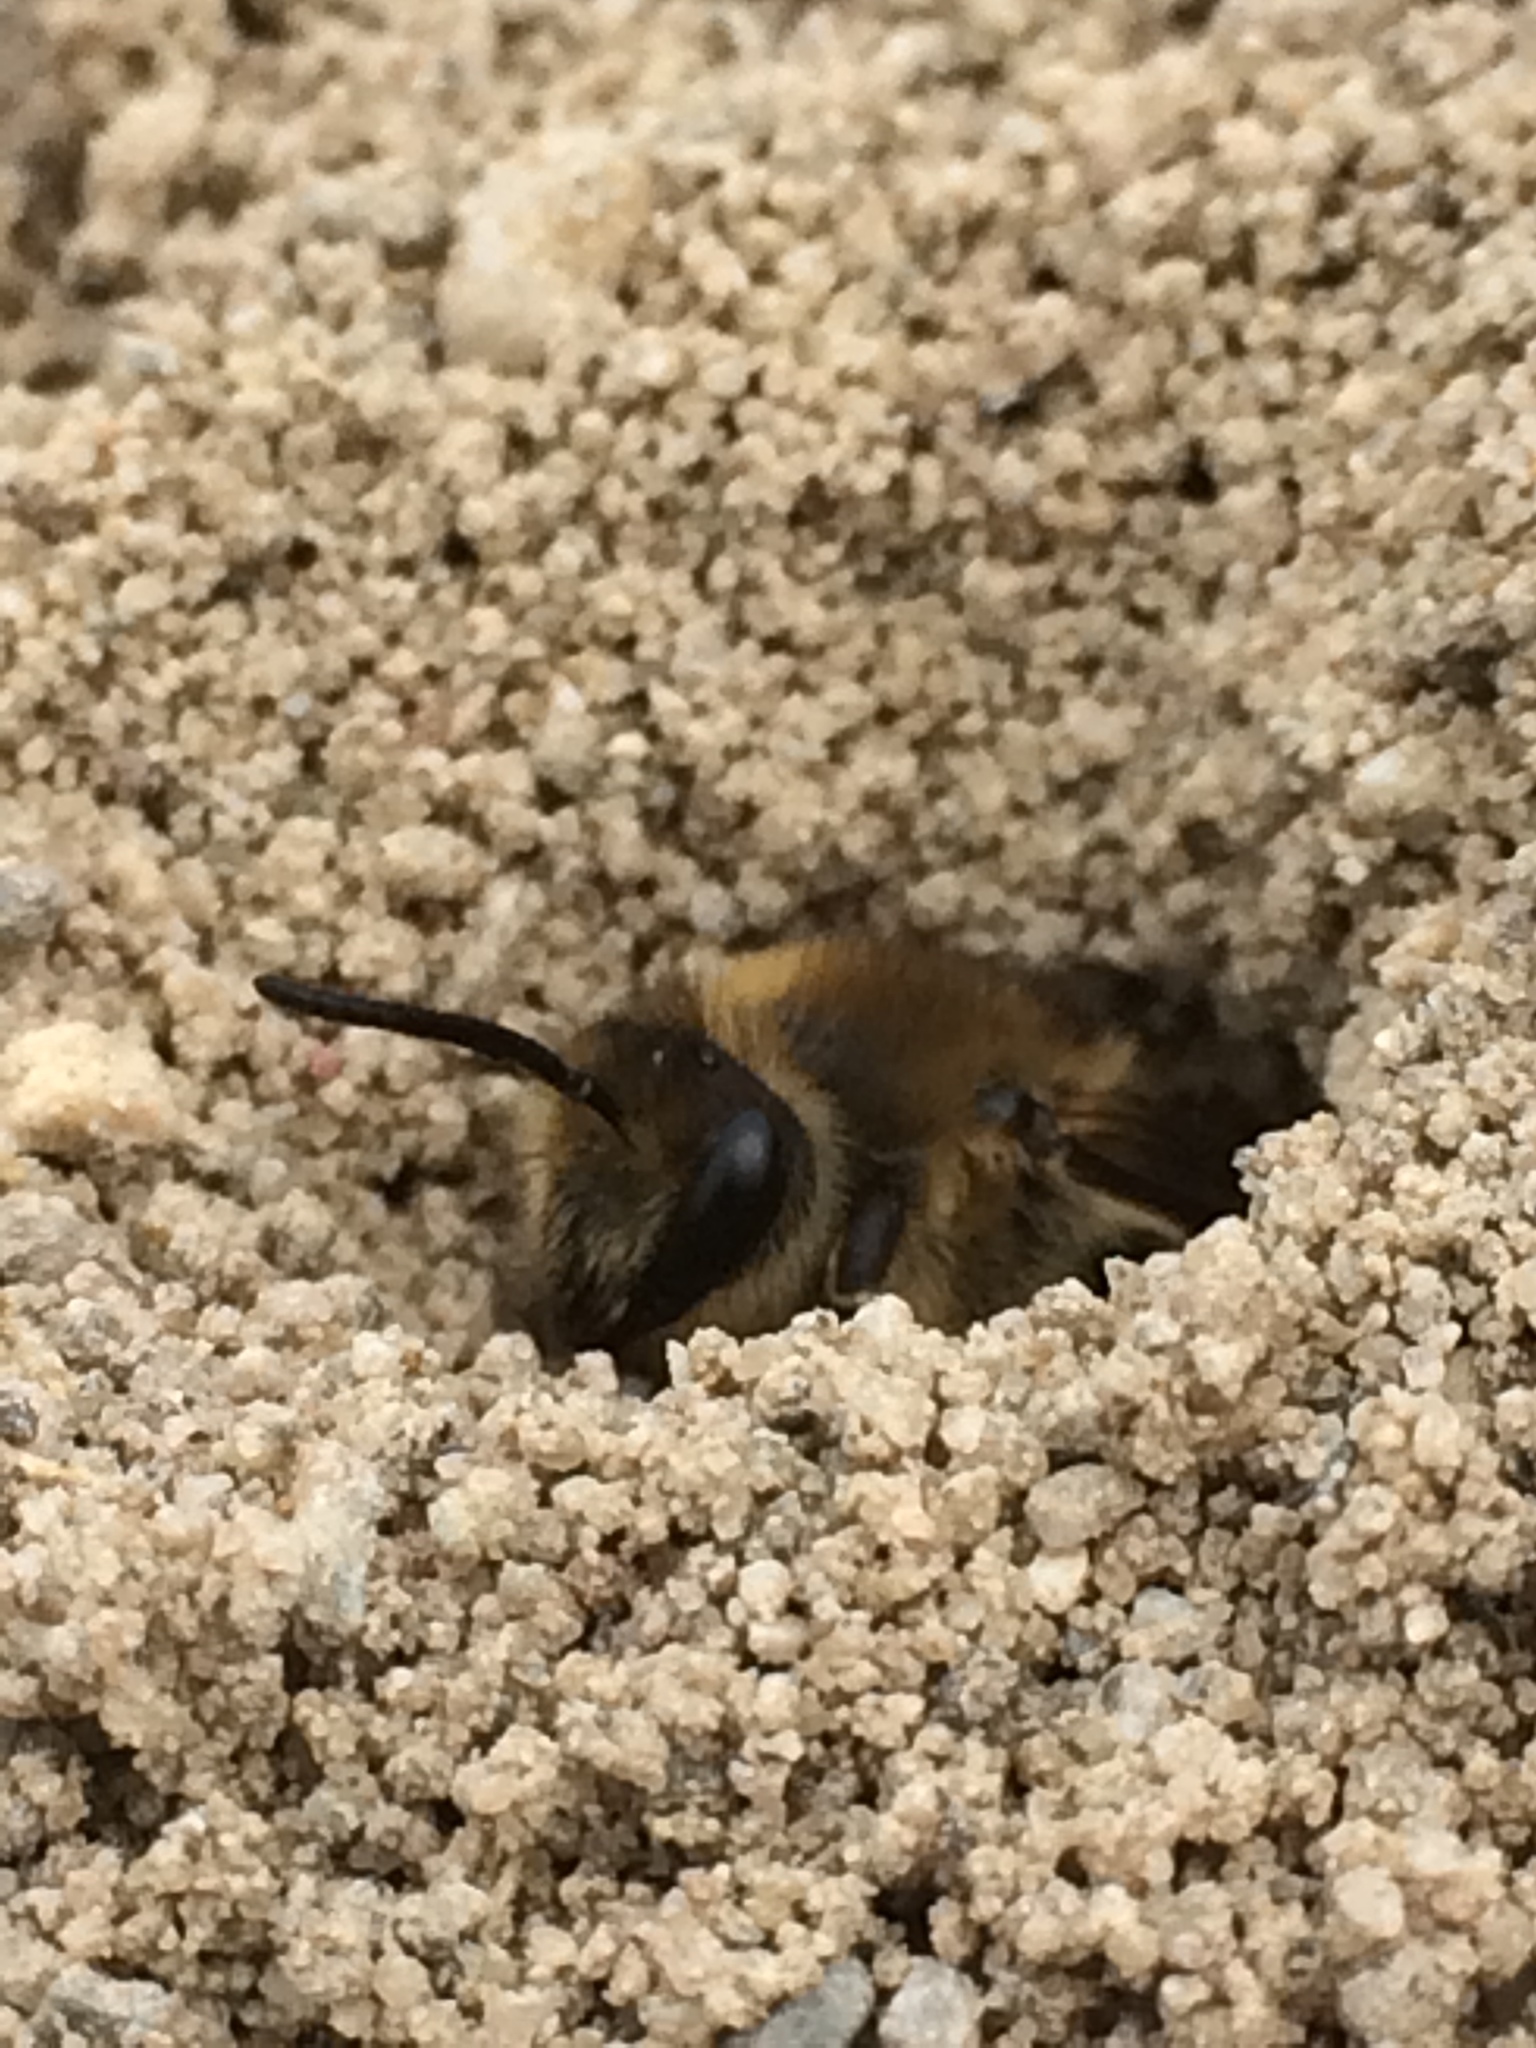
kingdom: Animalia
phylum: Arthropoda
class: Insecta
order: Hymenoptera
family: Colletidae
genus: Colletes
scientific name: Colletes inaequalis
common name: Unequal cellophane bee
